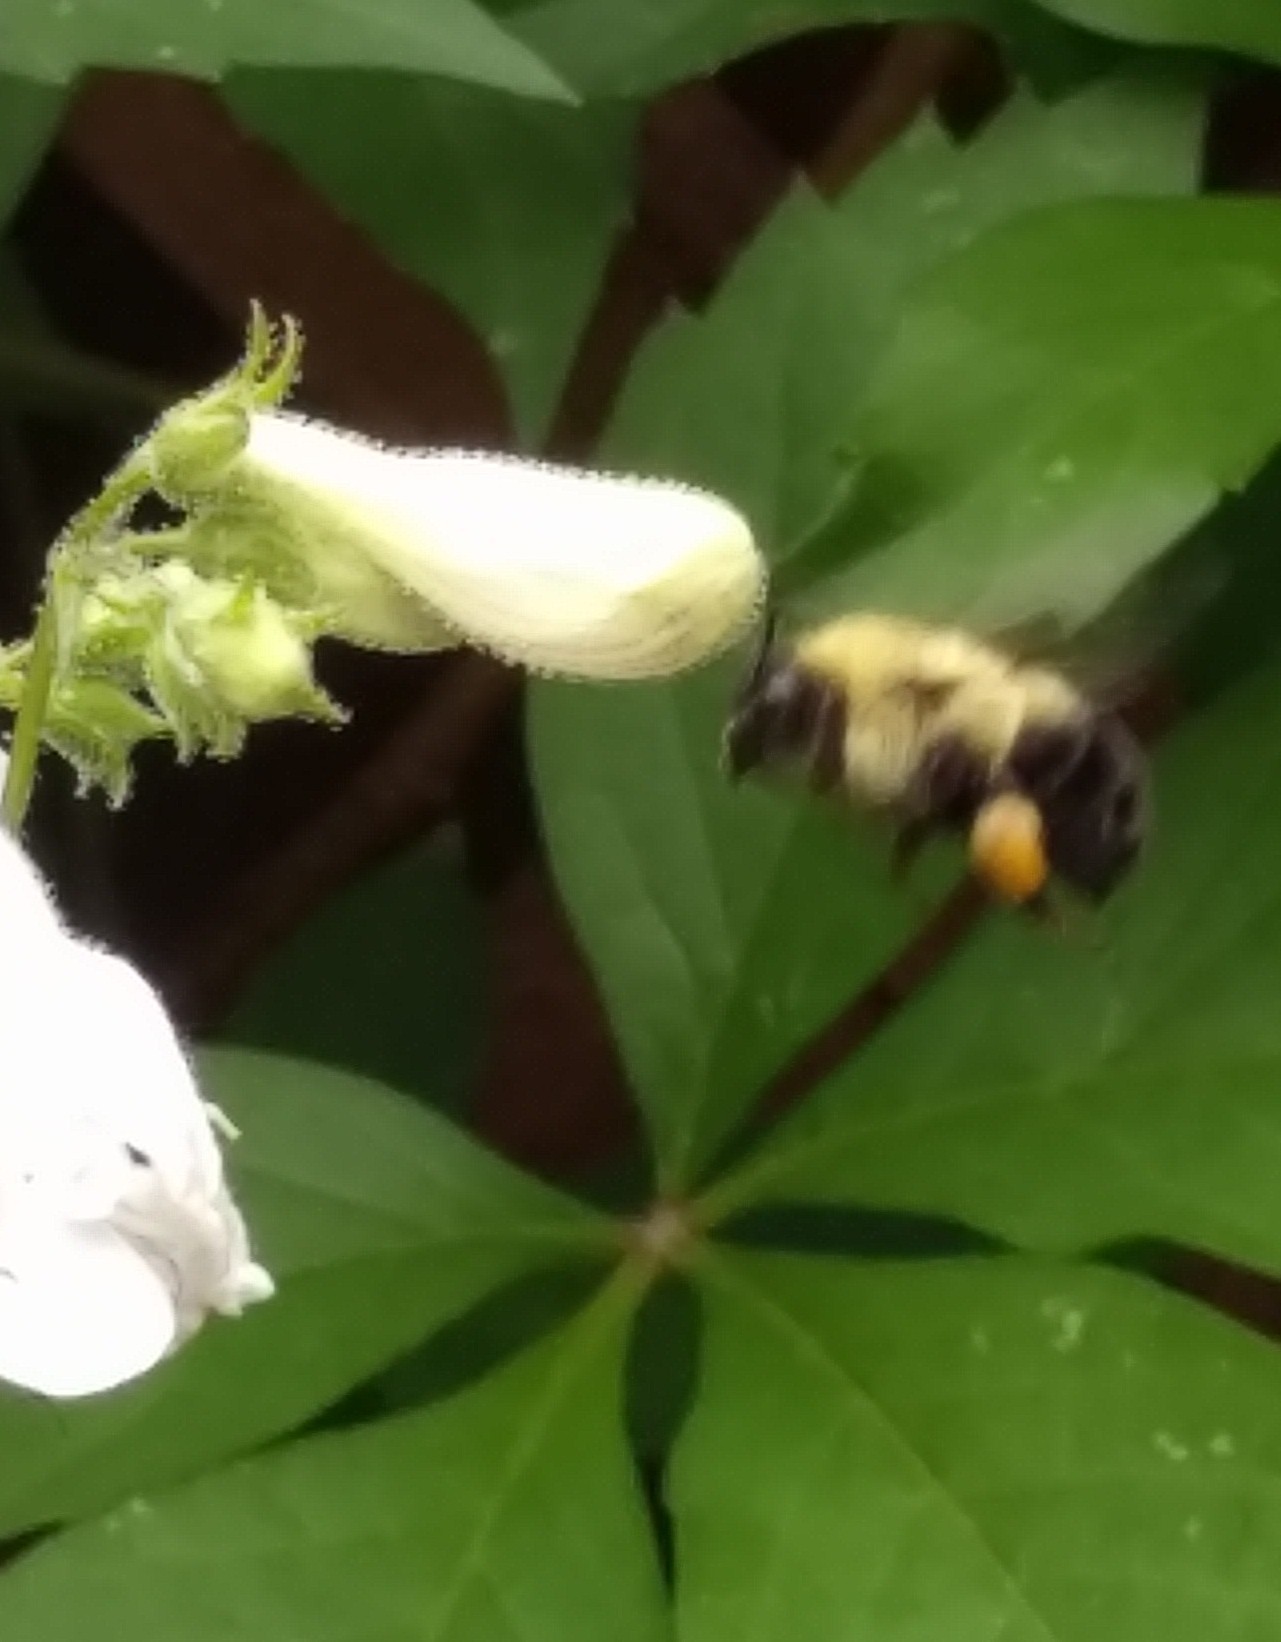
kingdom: Animalia
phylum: Arthropoda
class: Insecta
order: Hymenoptera
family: Apidae
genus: Bombus
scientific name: Bombus bimaculatus
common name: Two-spotted bumble bee
